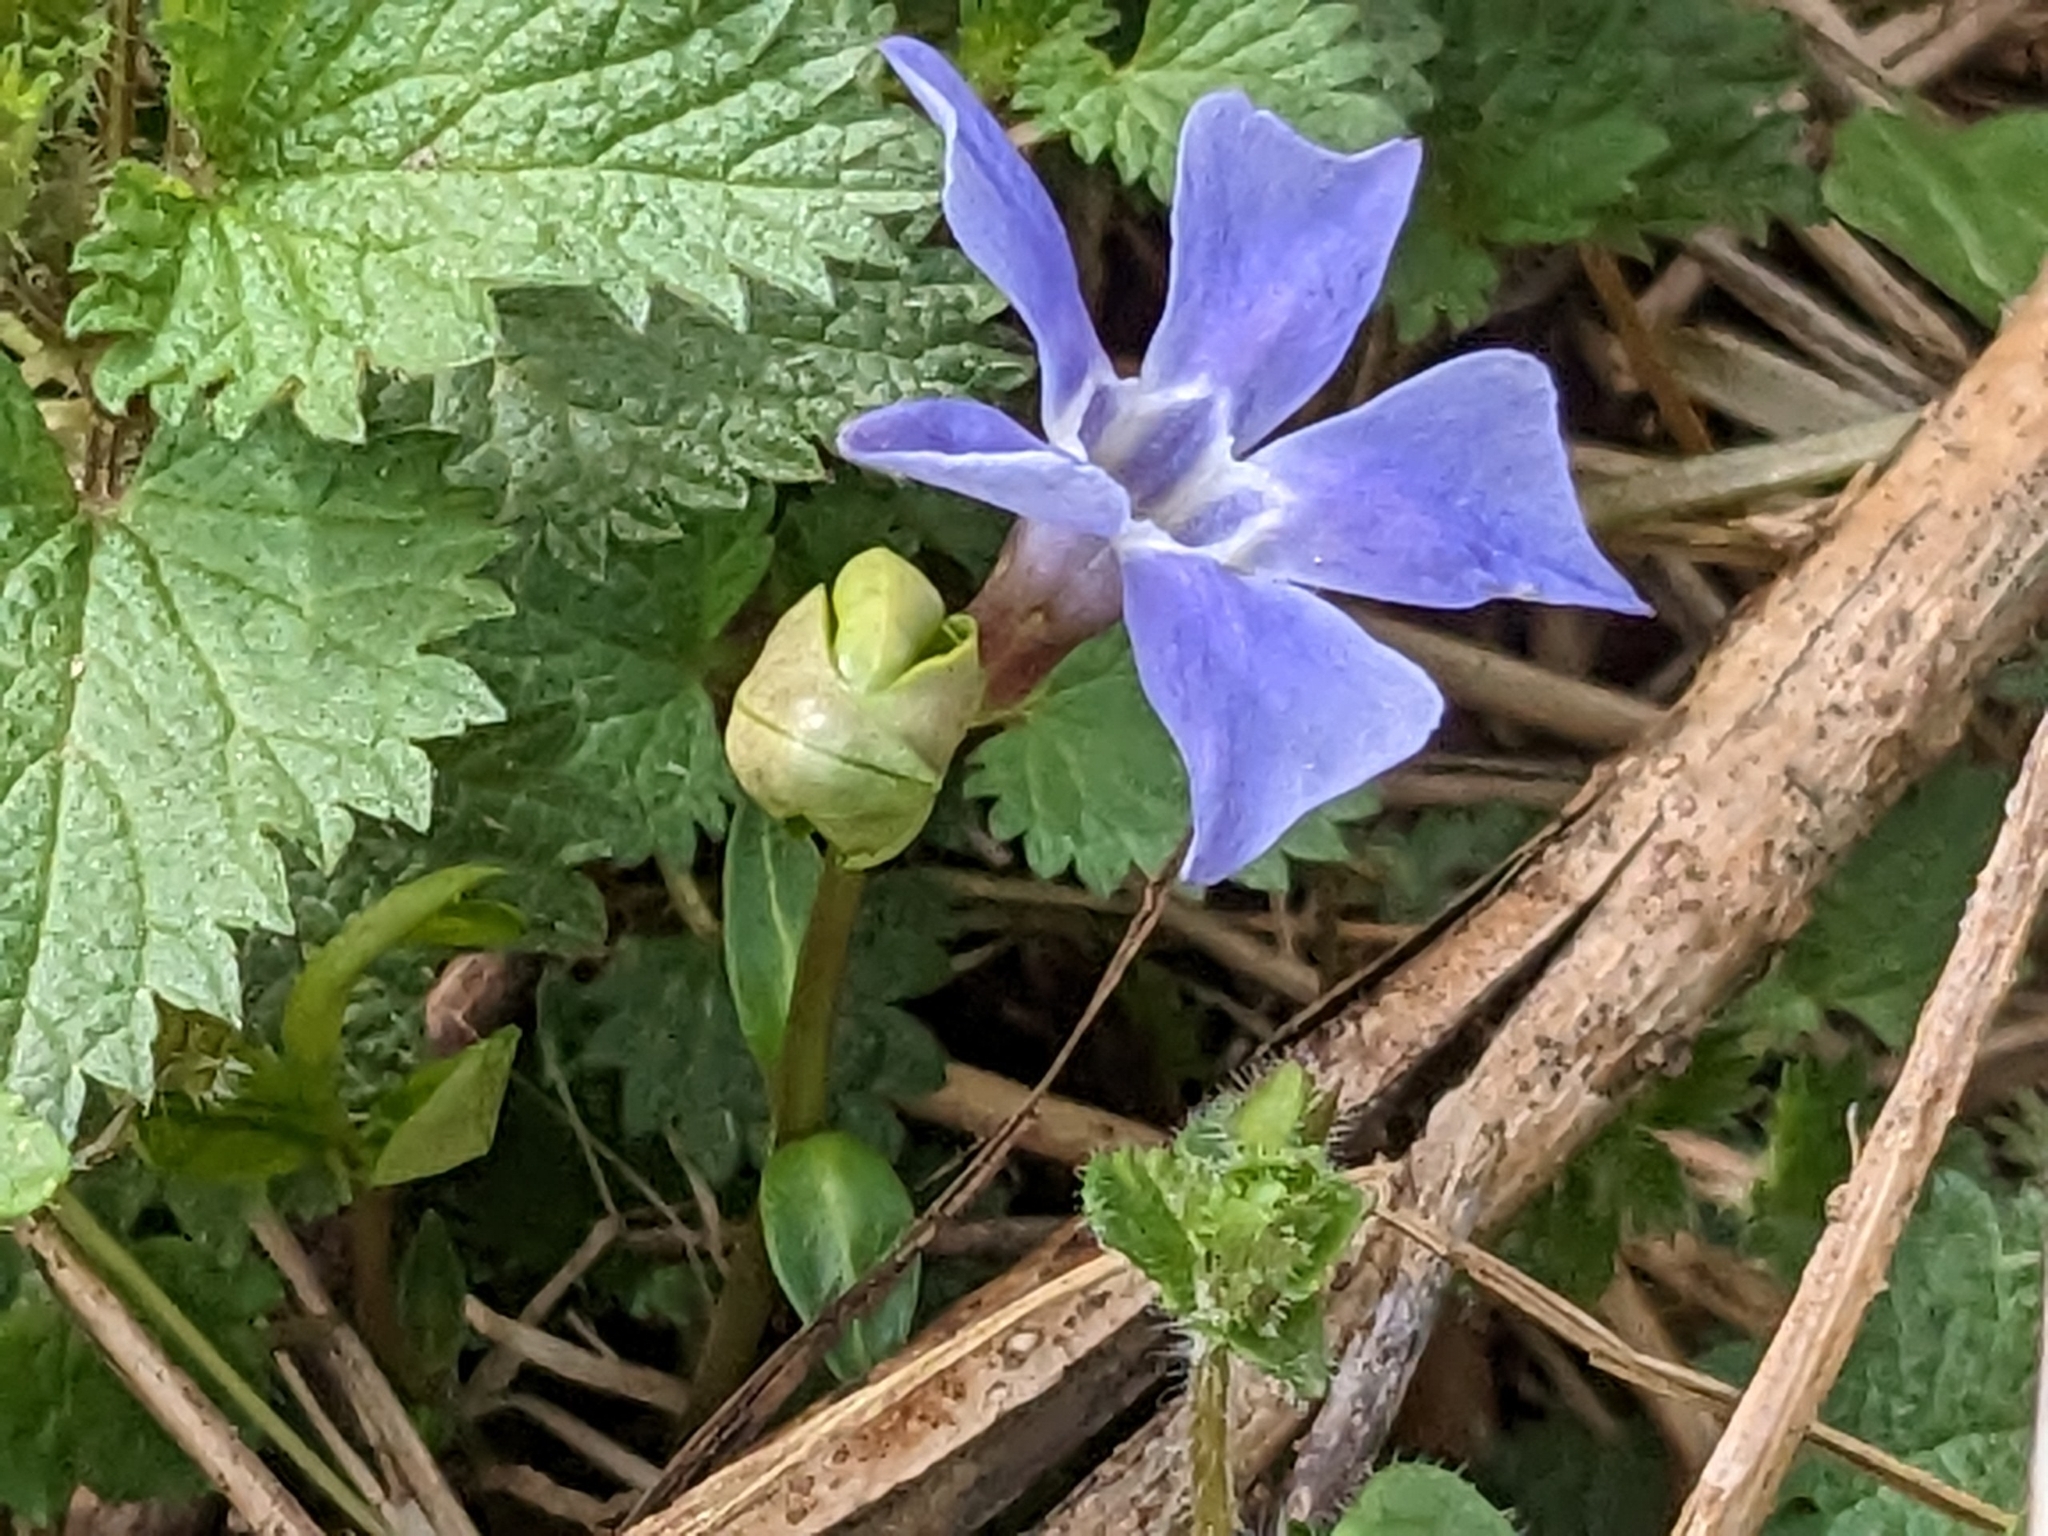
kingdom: Plantae
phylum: Tracheophyta
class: Magnoliopsida
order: Gentianales
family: Apocynaceae
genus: Vinca
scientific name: Vinca minor
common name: Lesser periwinkle
